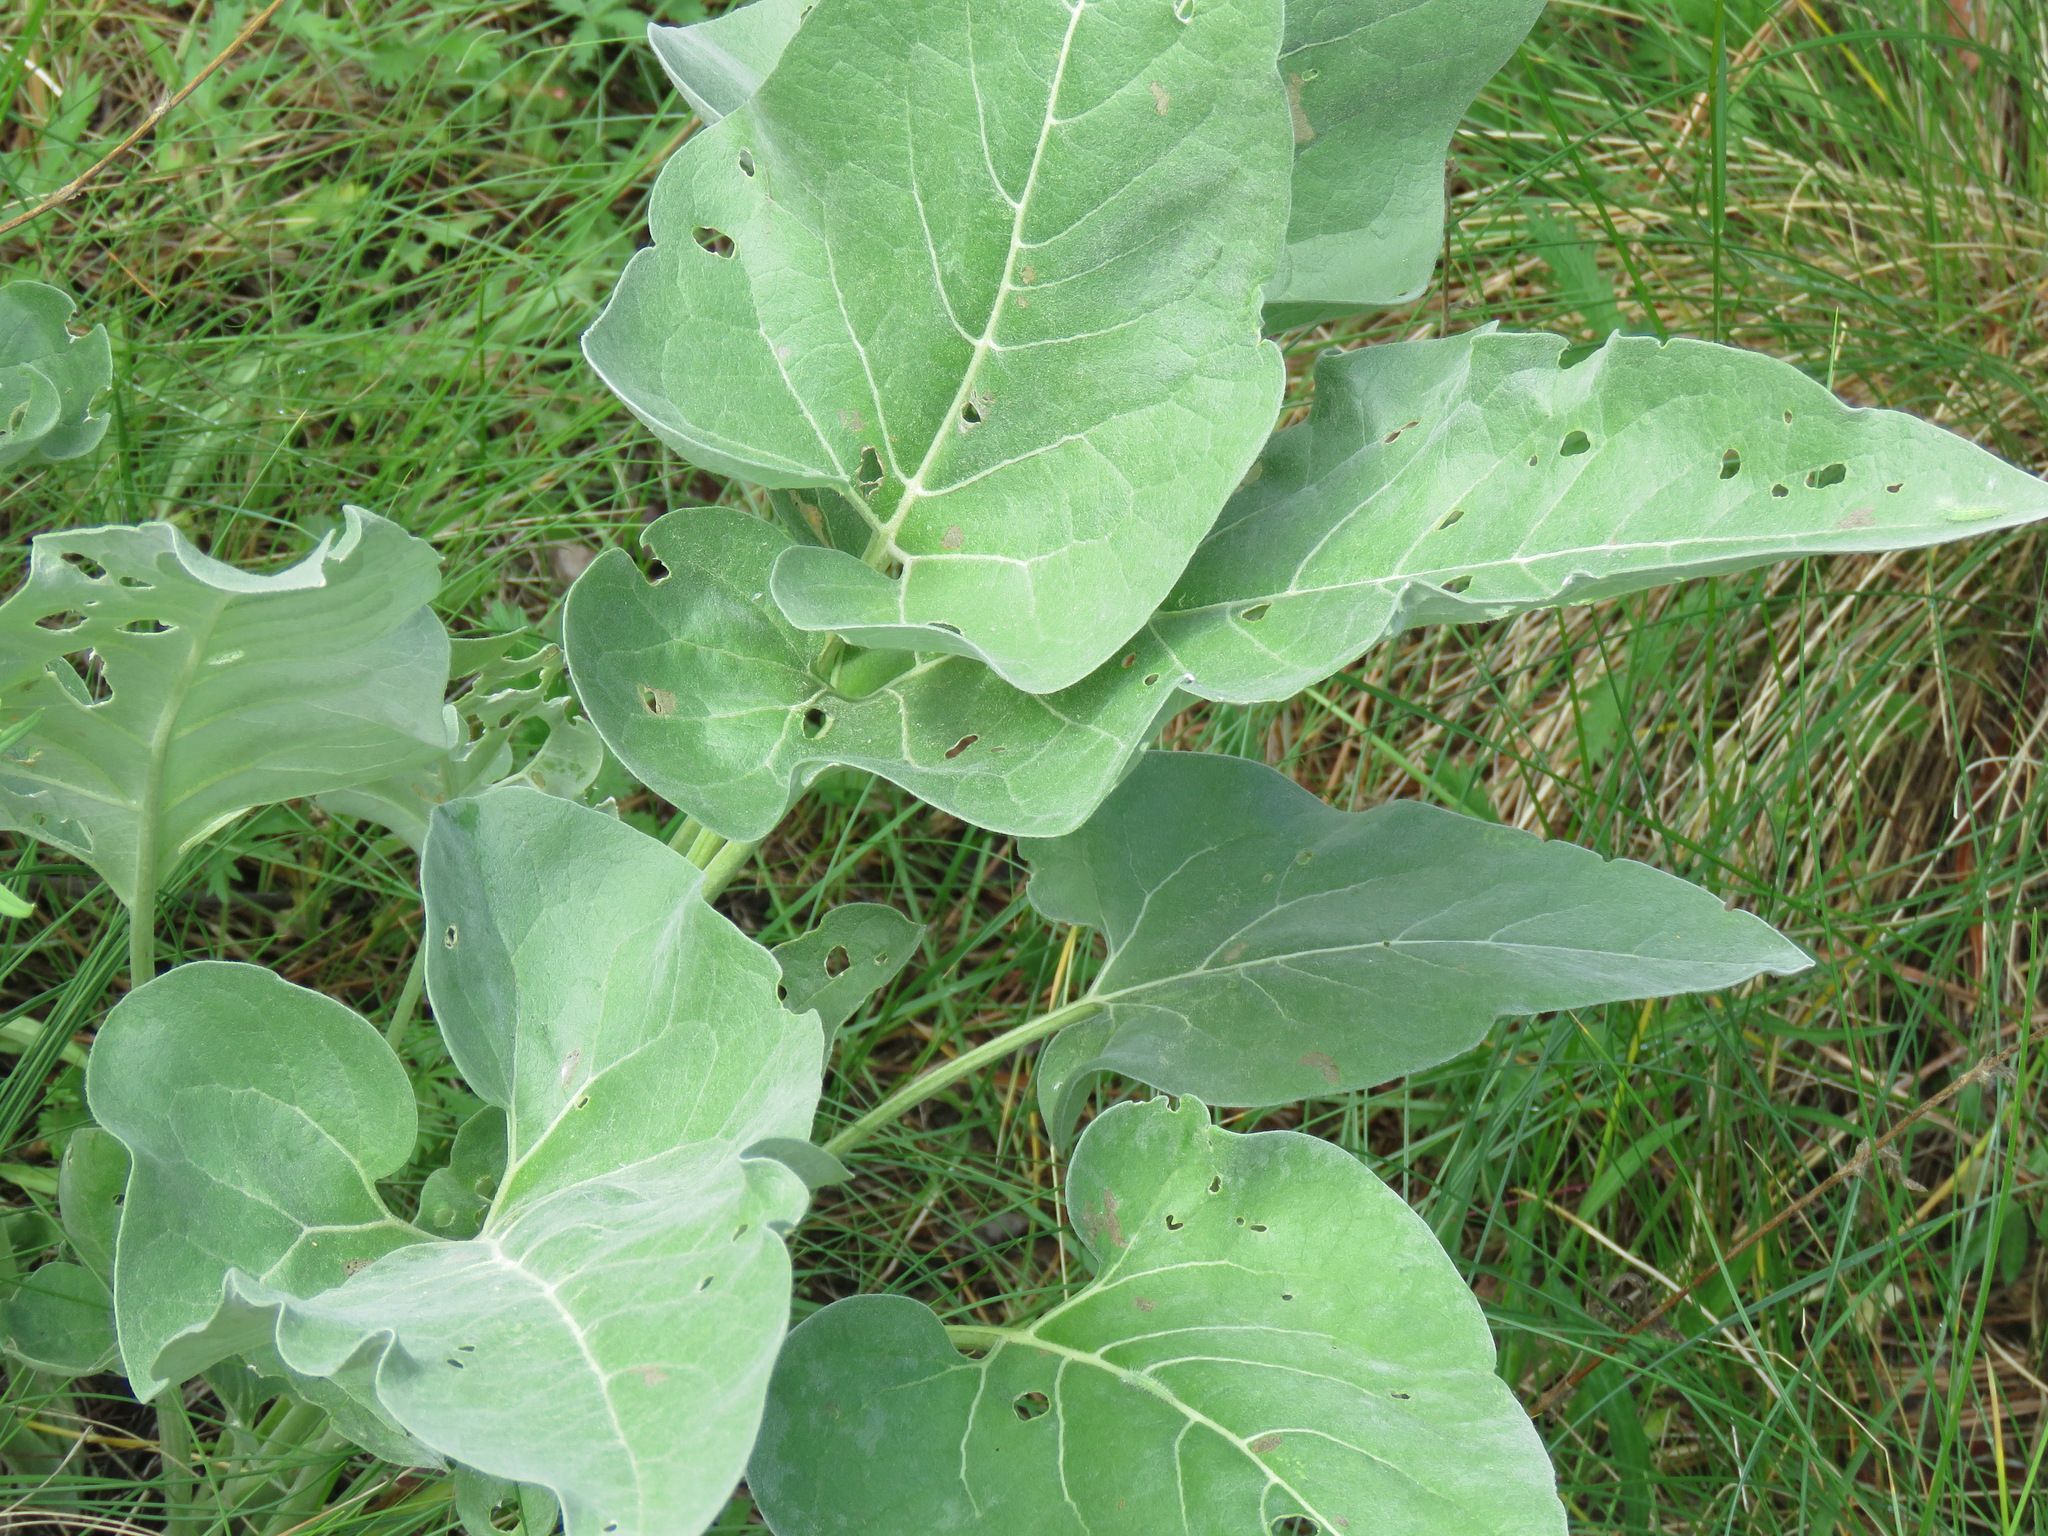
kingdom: Plantae
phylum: Tracheophyta
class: Magnoliopsida
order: Asterales
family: Asteraceae
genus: Wyethia
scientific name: Wyethia sagittata
